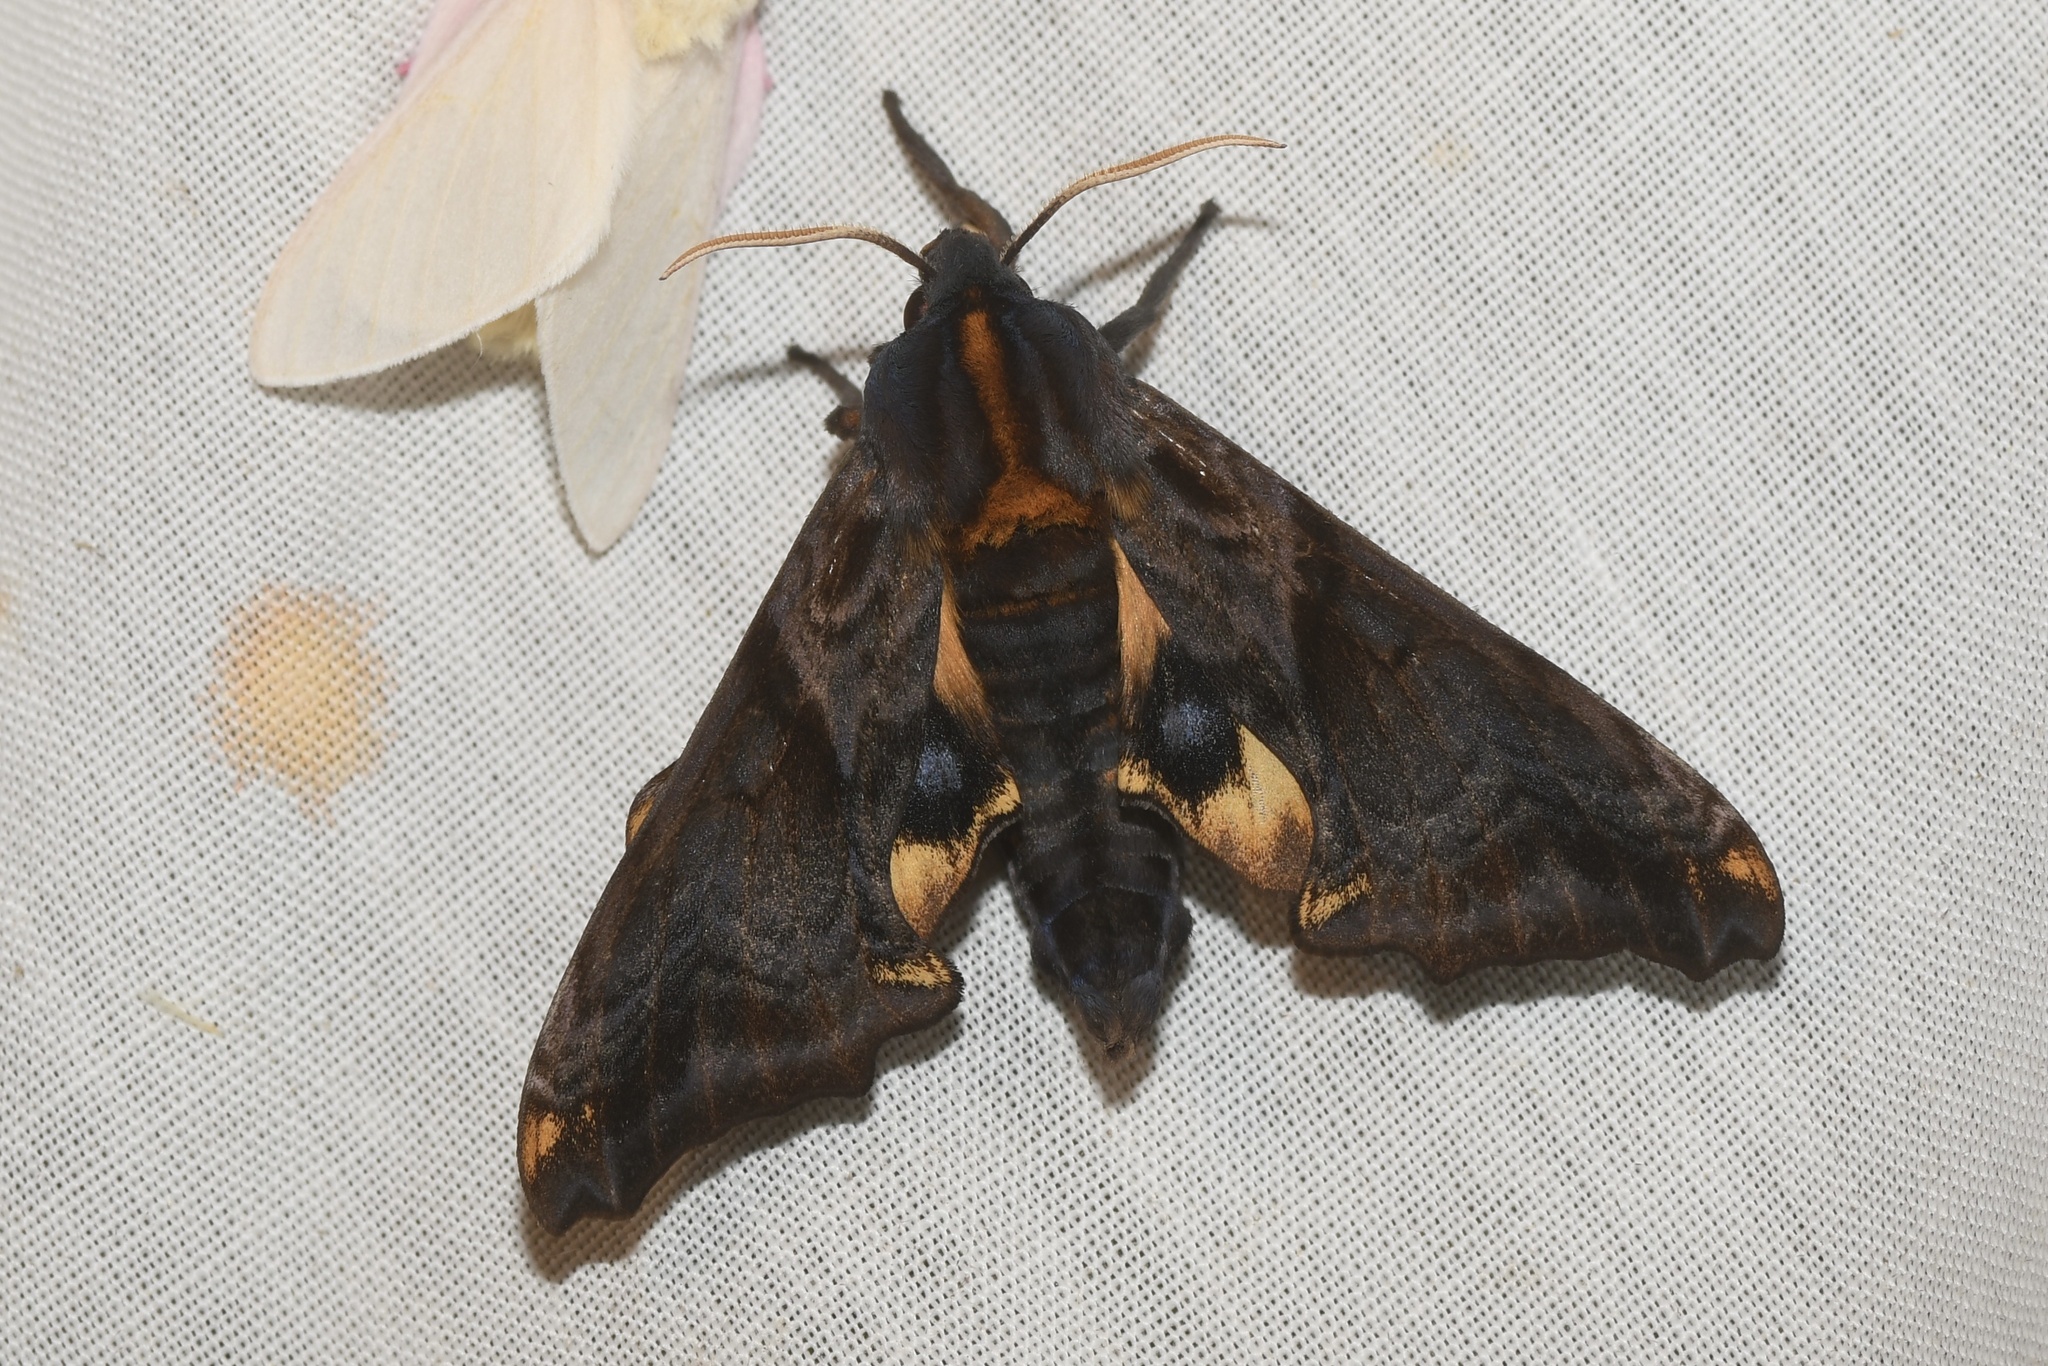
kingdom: Animalia
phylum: Arthropoda
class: Insecta
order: Lepidoptera
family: Sphingidae
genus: Paonias
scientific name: Paonias myops
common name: Small-eyed sphinx
